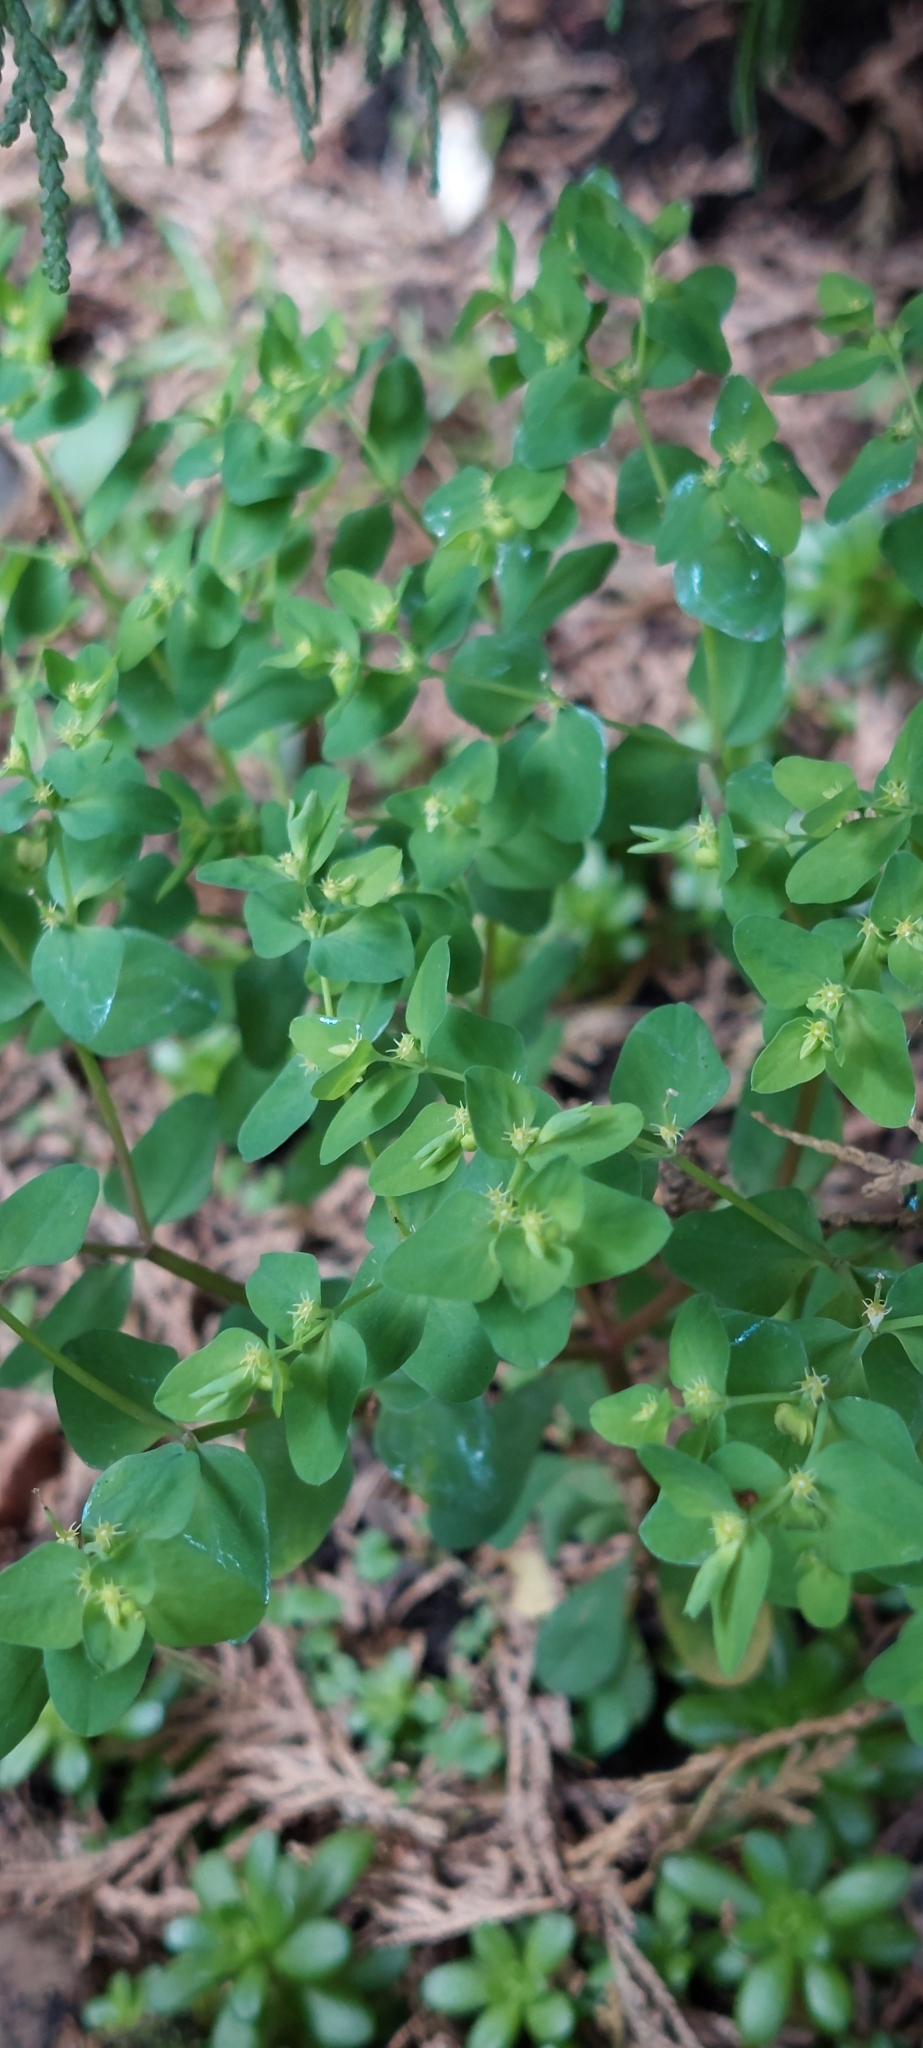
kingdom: Plantae
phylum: Tracheophyta
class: Magnoliopsida
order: Malpighiales
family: Euphorbiaceae
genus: Euphorbia
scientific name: Euphorbia peplus
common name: Petty spurge
